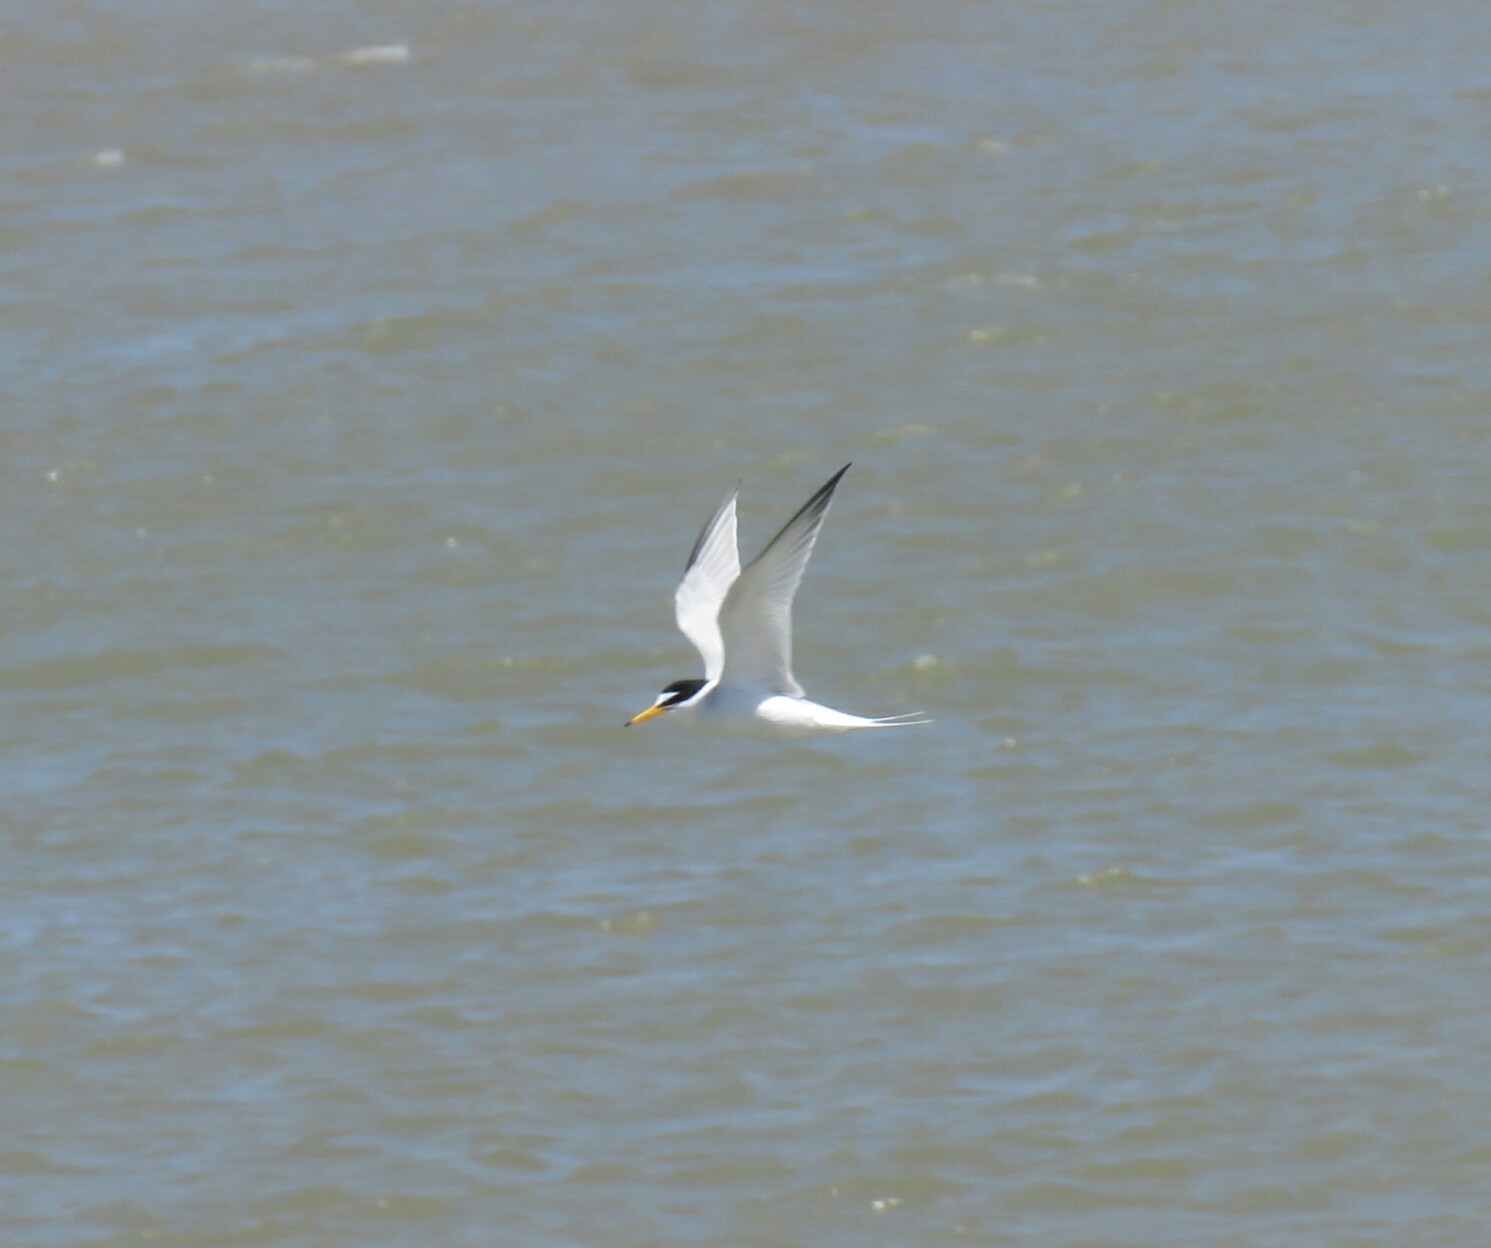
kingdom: Animalia
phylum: Chordata
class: Aves
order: Charadriiformes
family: Laridae
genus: Sternula
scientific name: Sternula albifrons
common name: Little tern
